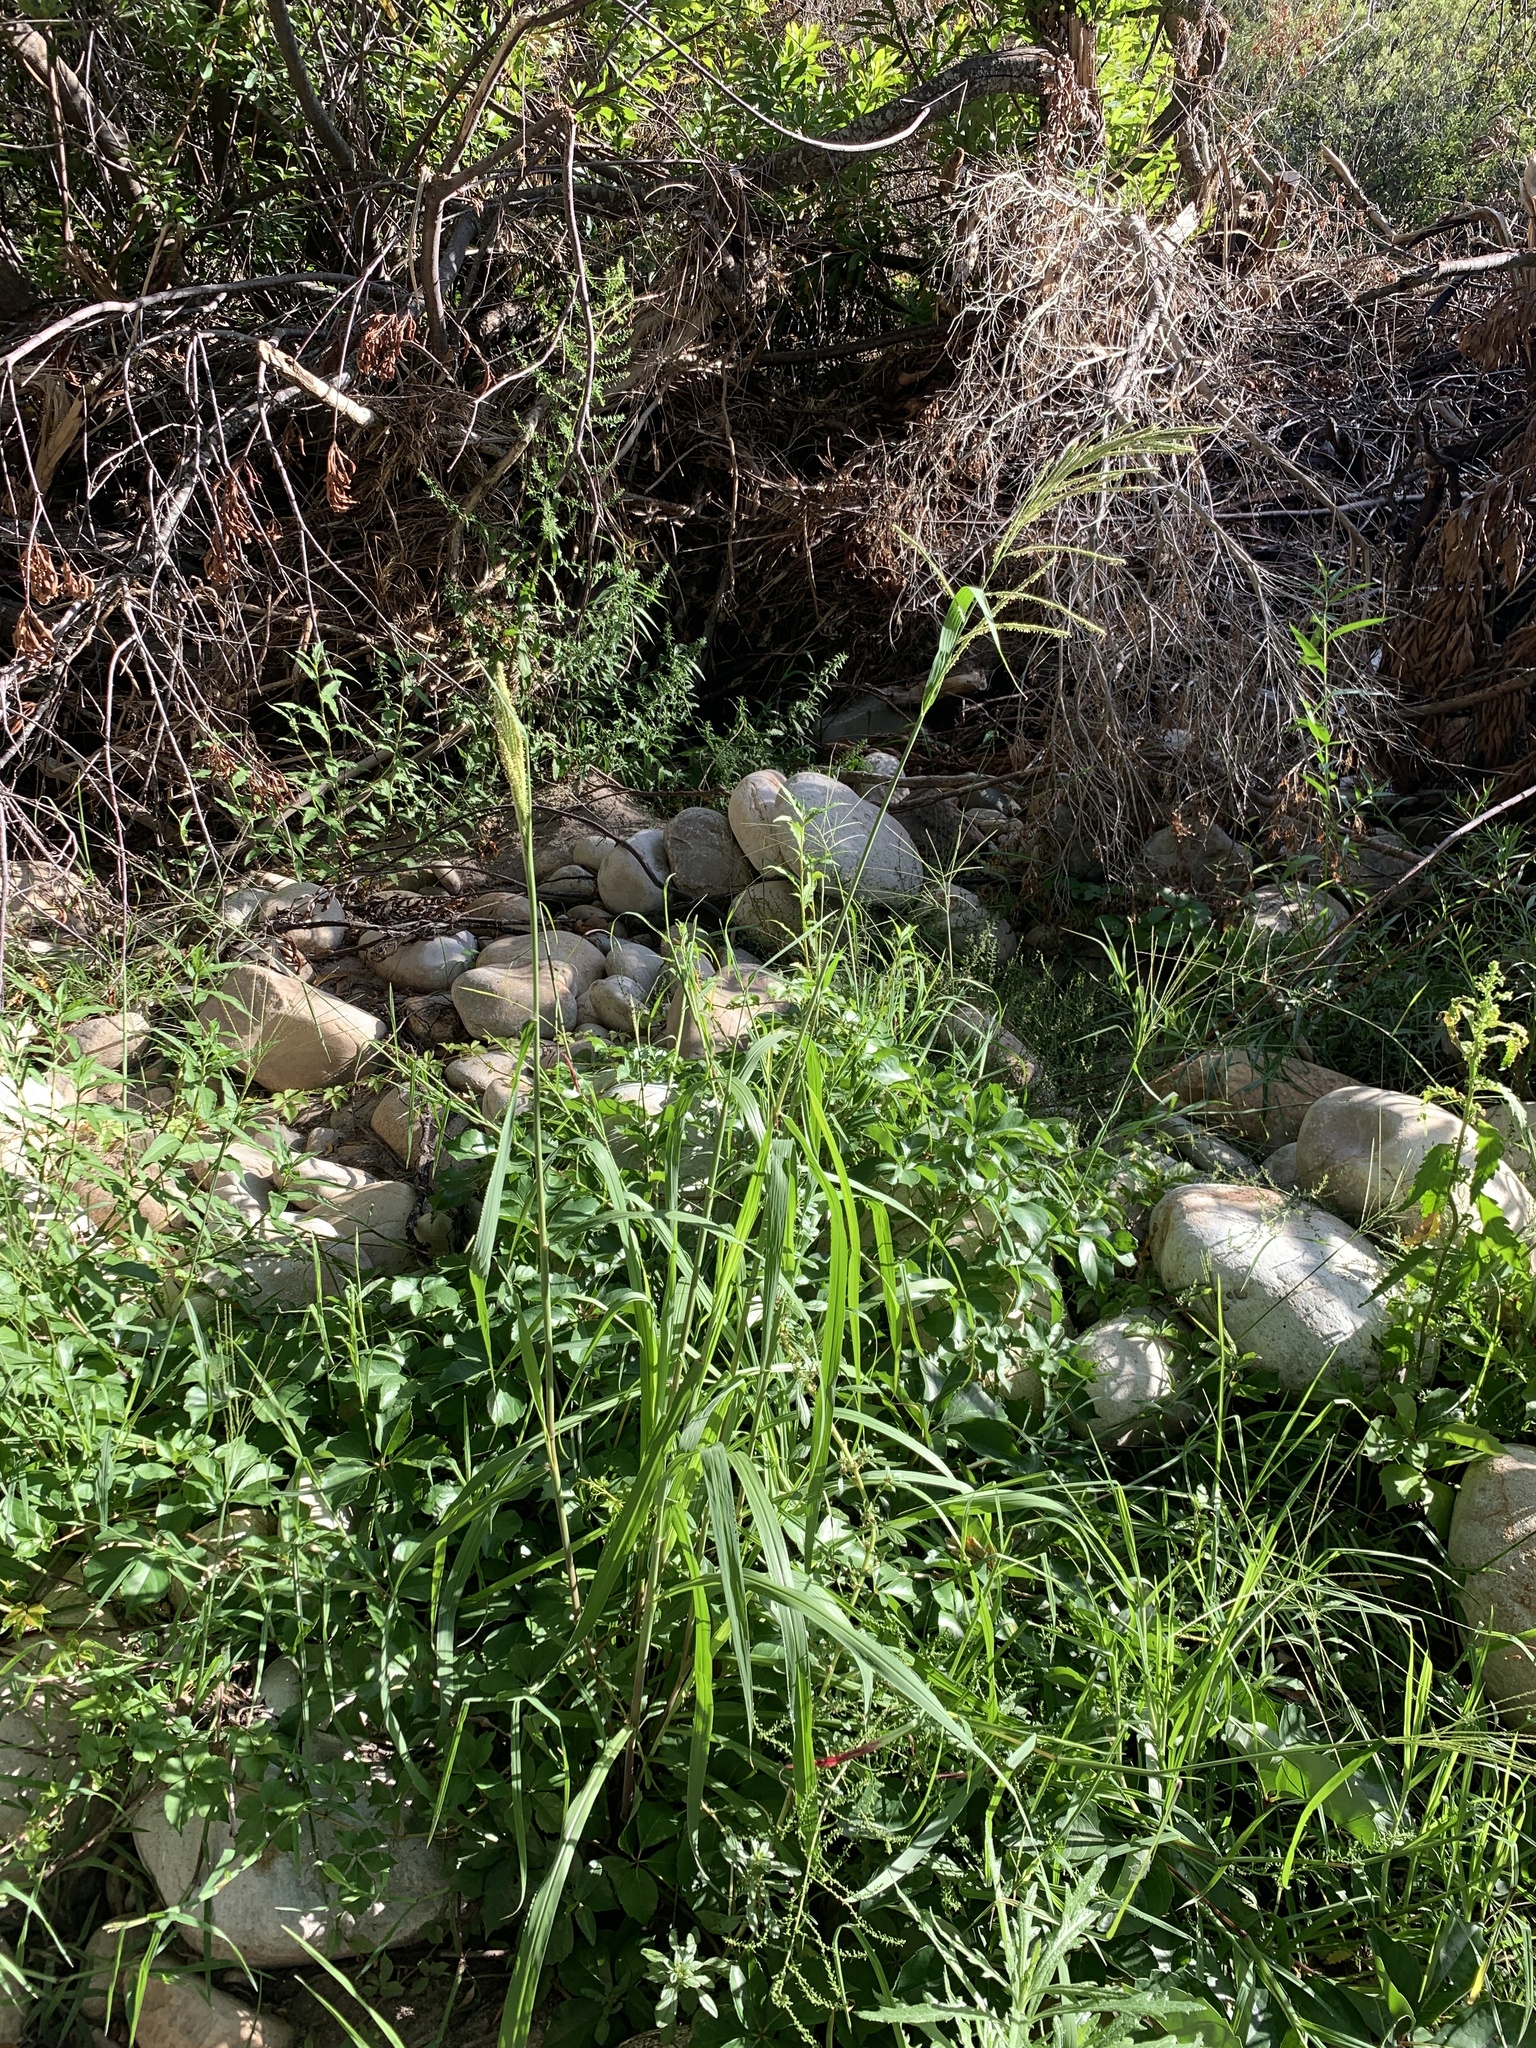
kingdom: Plantae
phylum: Tracheophyta
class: Liliopsida
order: Poales
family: Poaceae
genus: Paspalum
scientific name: Paspalum urvillei
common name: Vasey's grass
